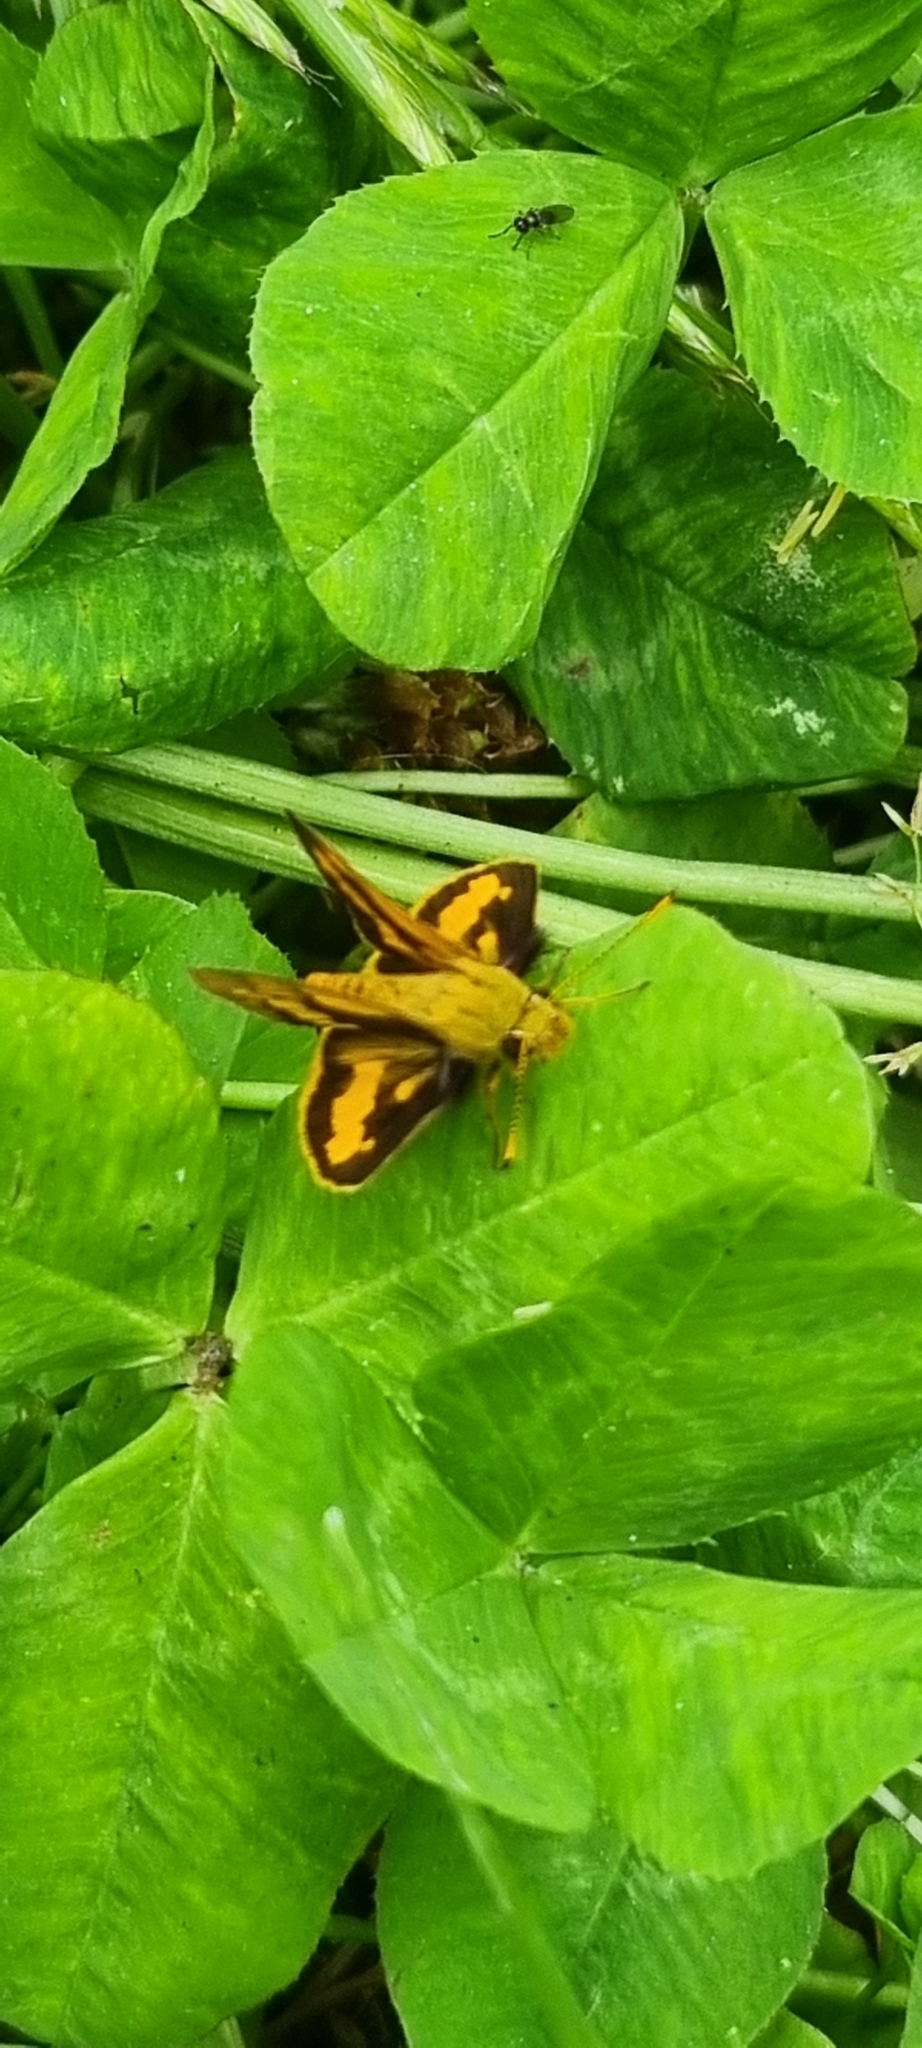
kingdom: Animalia
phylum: Arthropoda
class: Insecta
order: Lepidoptera
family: Hesperiidae
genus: Ocybadistes
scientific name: Ocybadistes walkeri
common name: Yellow-banded dart
